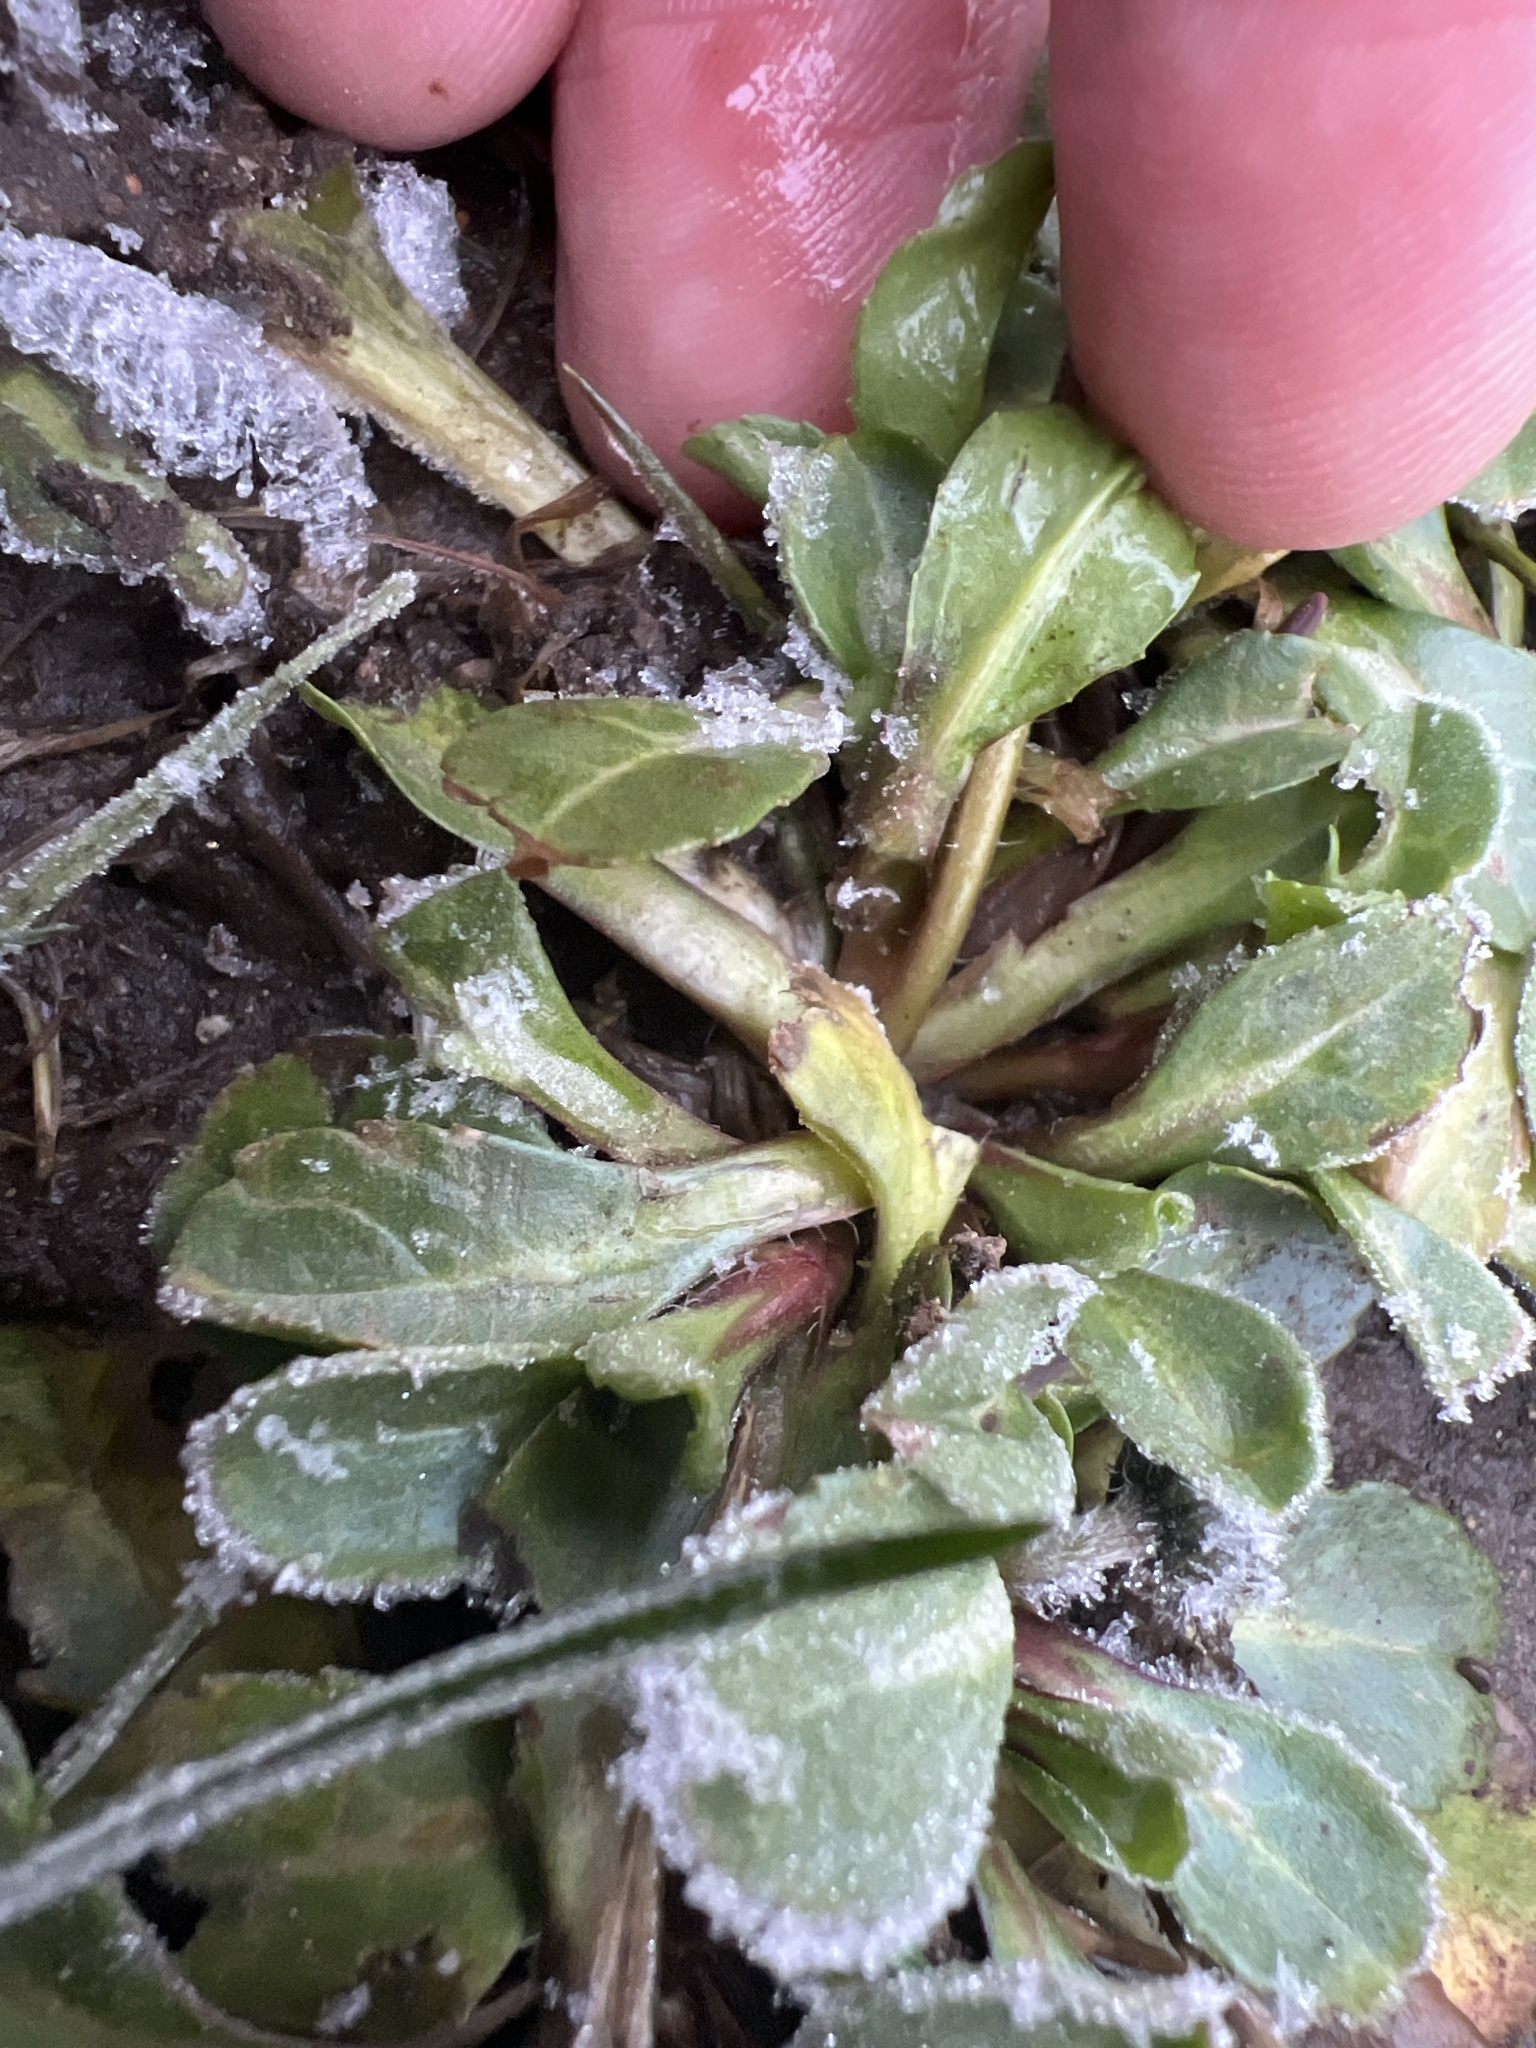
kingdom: Plantae
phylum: Tracheophyta
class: Magnoliopsida
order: Asterales
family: Asteraceae
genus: Bellis
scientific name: Bellis perennis
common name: Lawndaisy
